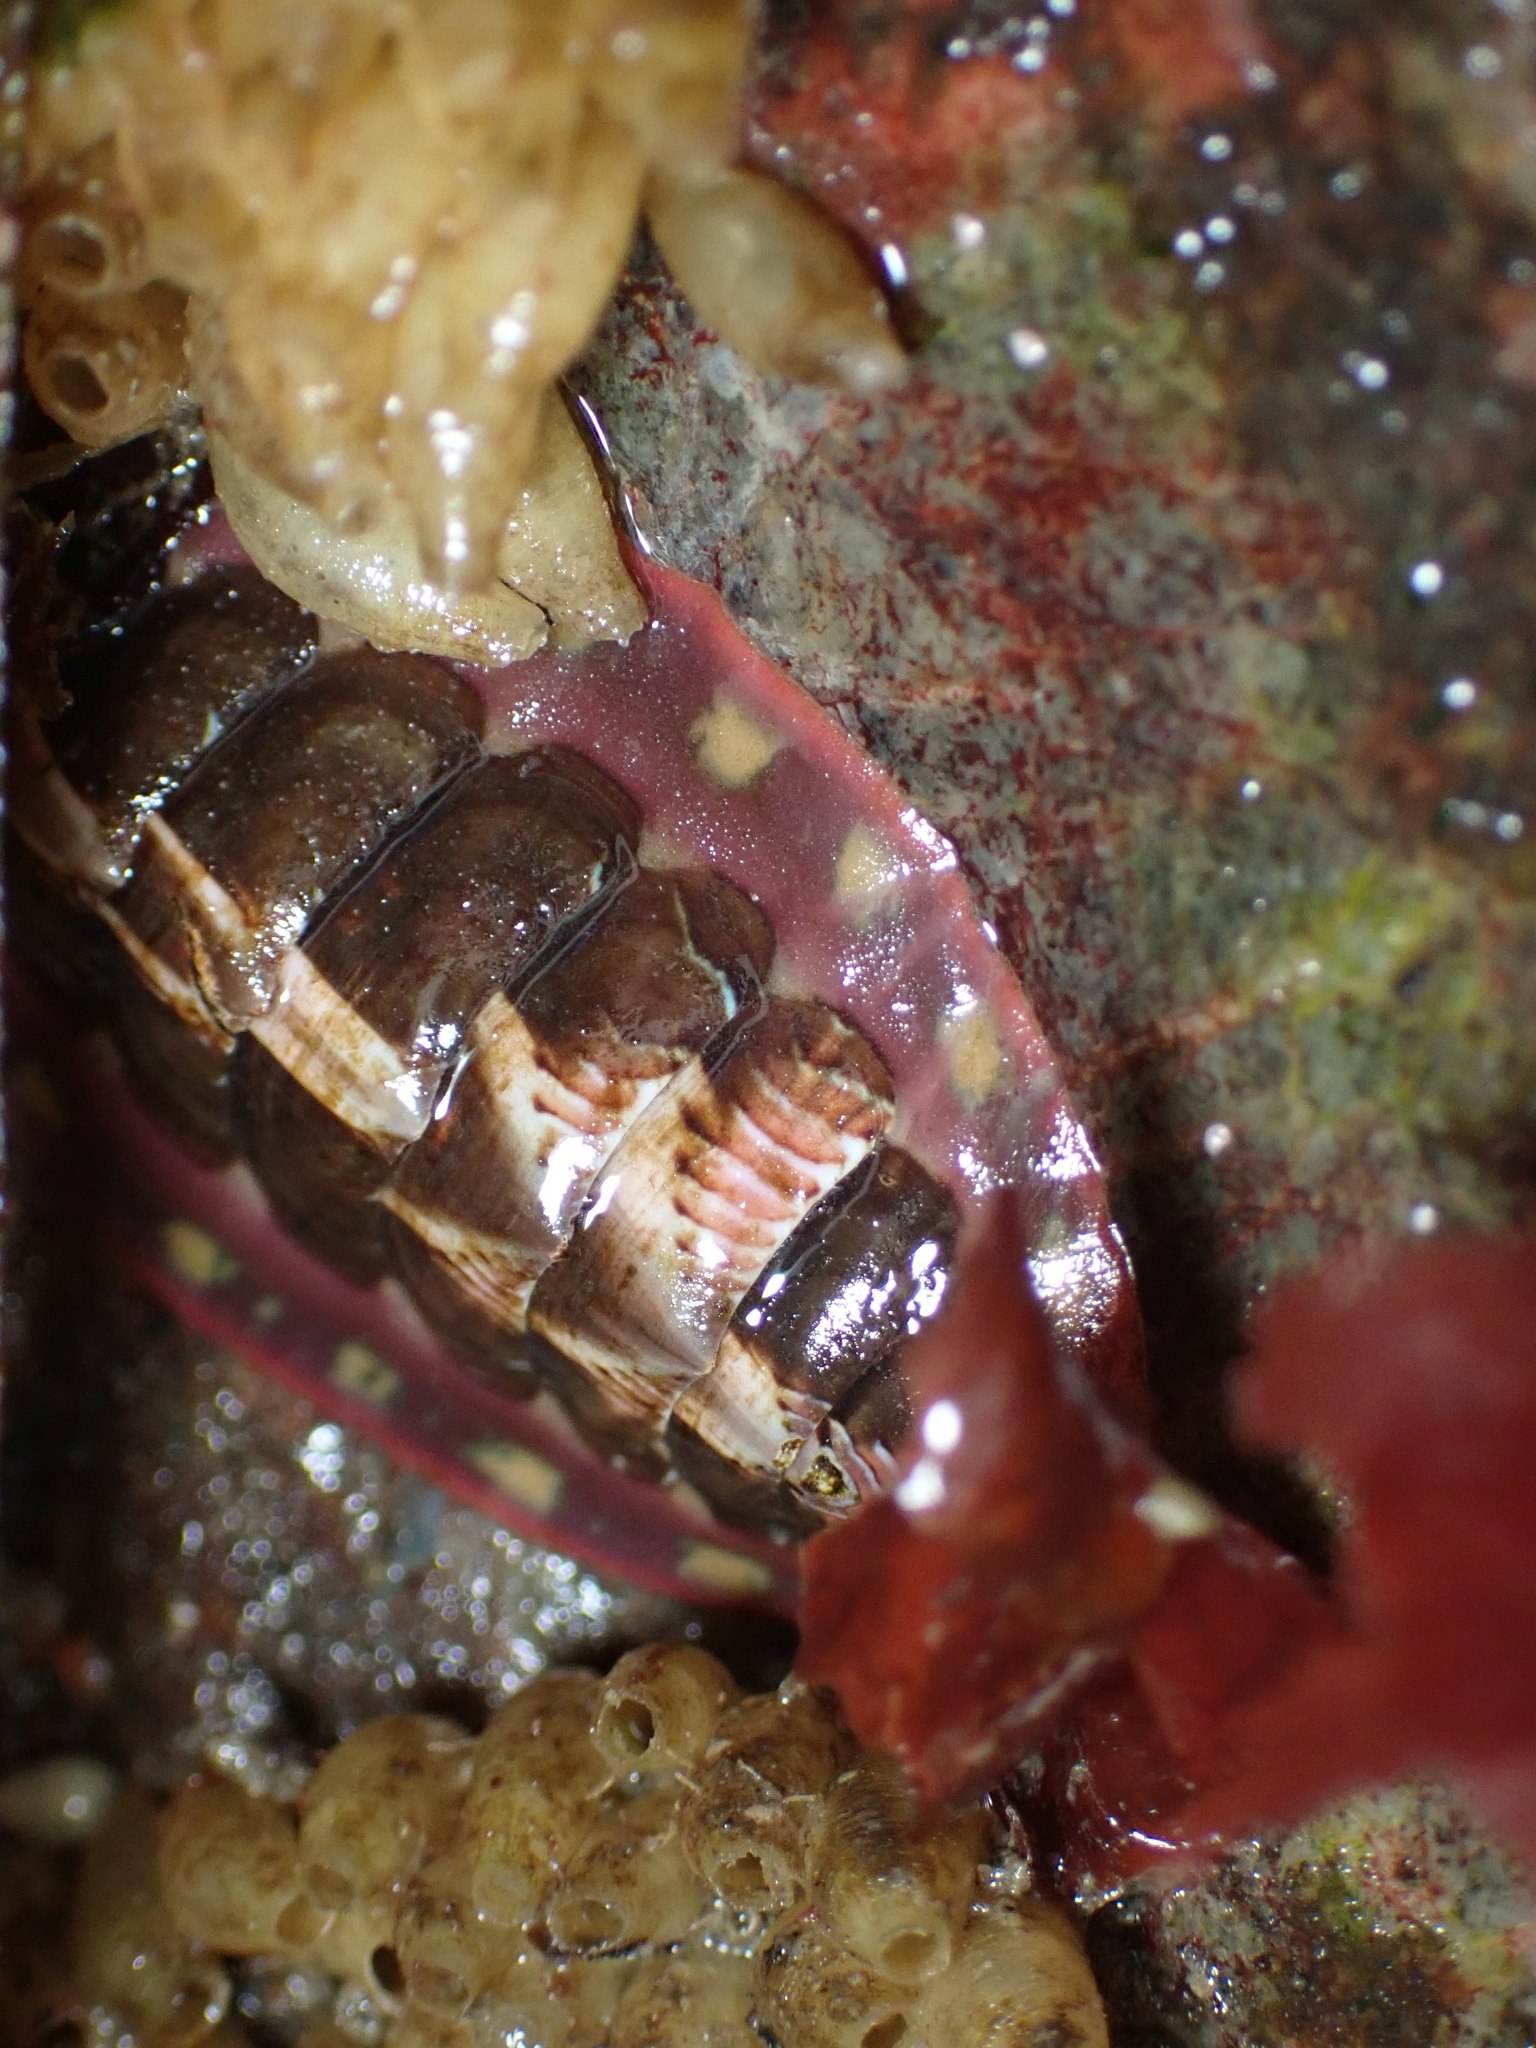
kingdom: Animalia
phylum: Mollusca
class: Polyplacophora
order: Chitonida
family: Tonicellidae
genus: Tonicella
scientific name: Tonicella lineata
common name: Lined chiton
